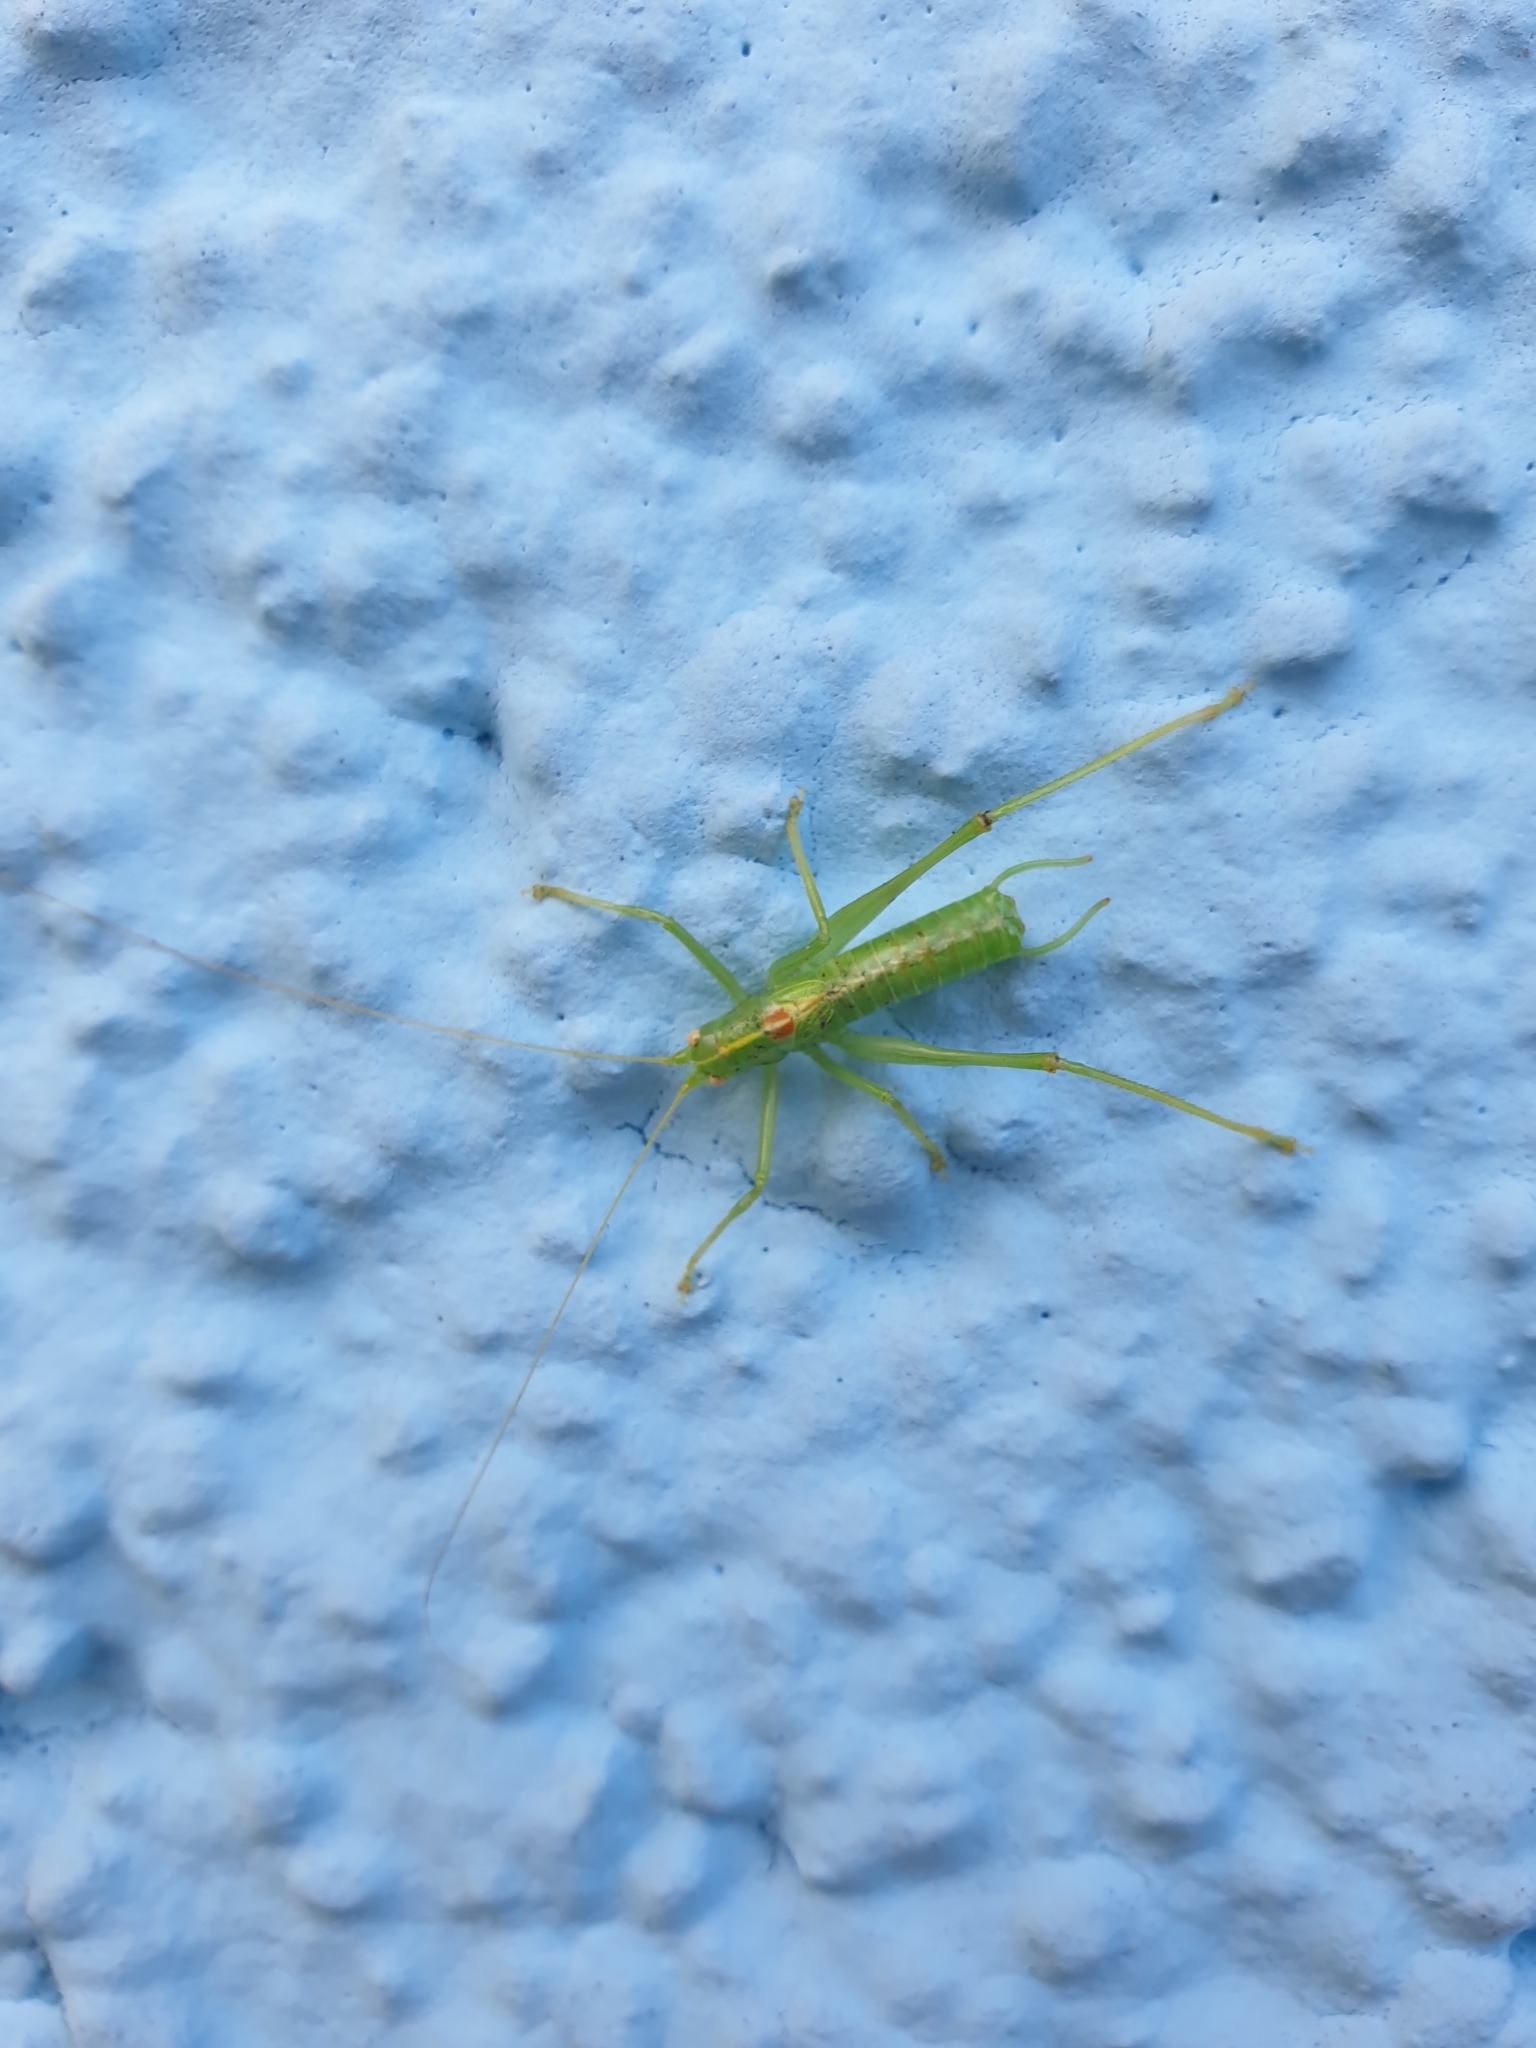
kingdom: Animalia
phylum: Arthropoda
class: Insecta
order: Orthoptera
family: Tettigoniidae
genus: Meconema
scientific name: Meconema meridionale
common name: Southern oak bush-cricket
